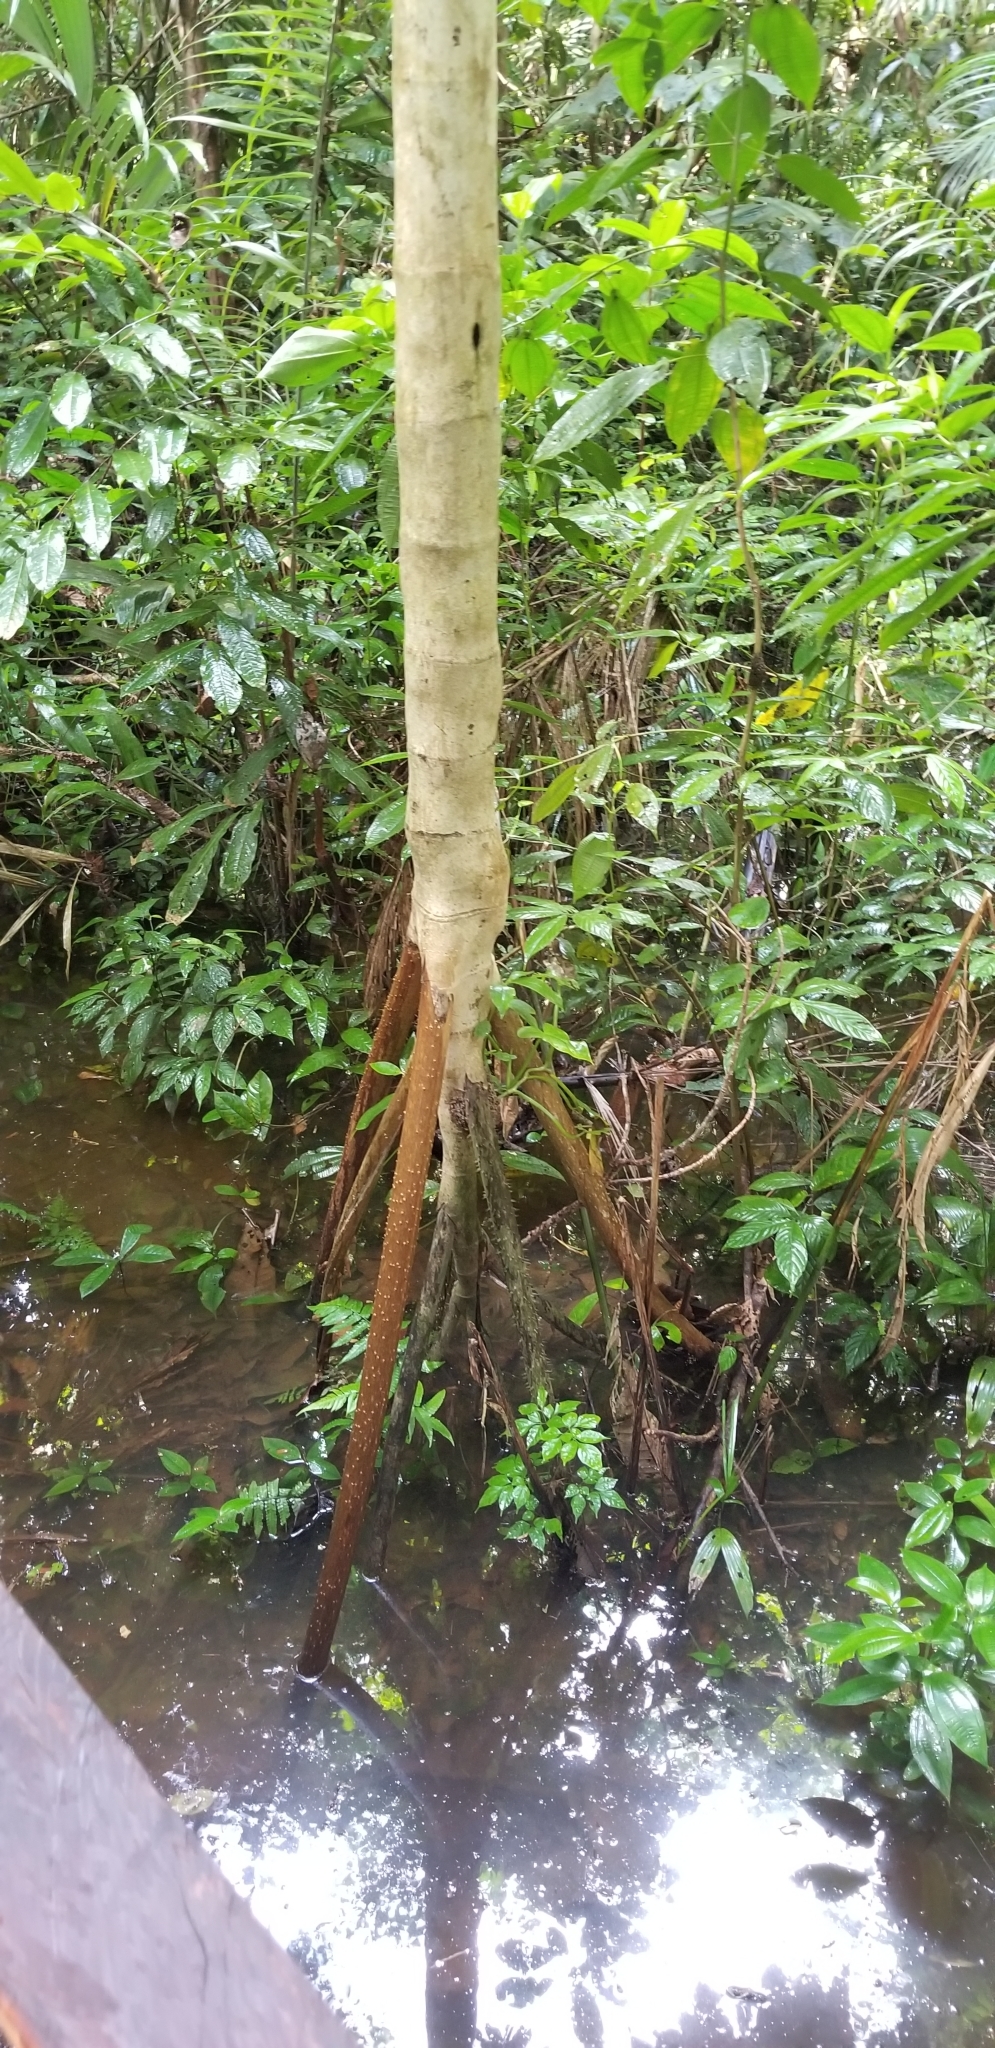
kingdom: Plantae
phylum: Tracheophyta
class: Liliopsida
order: Arecales
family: Arecaceae
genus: Socratea
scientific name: Socratea exorrhiza
